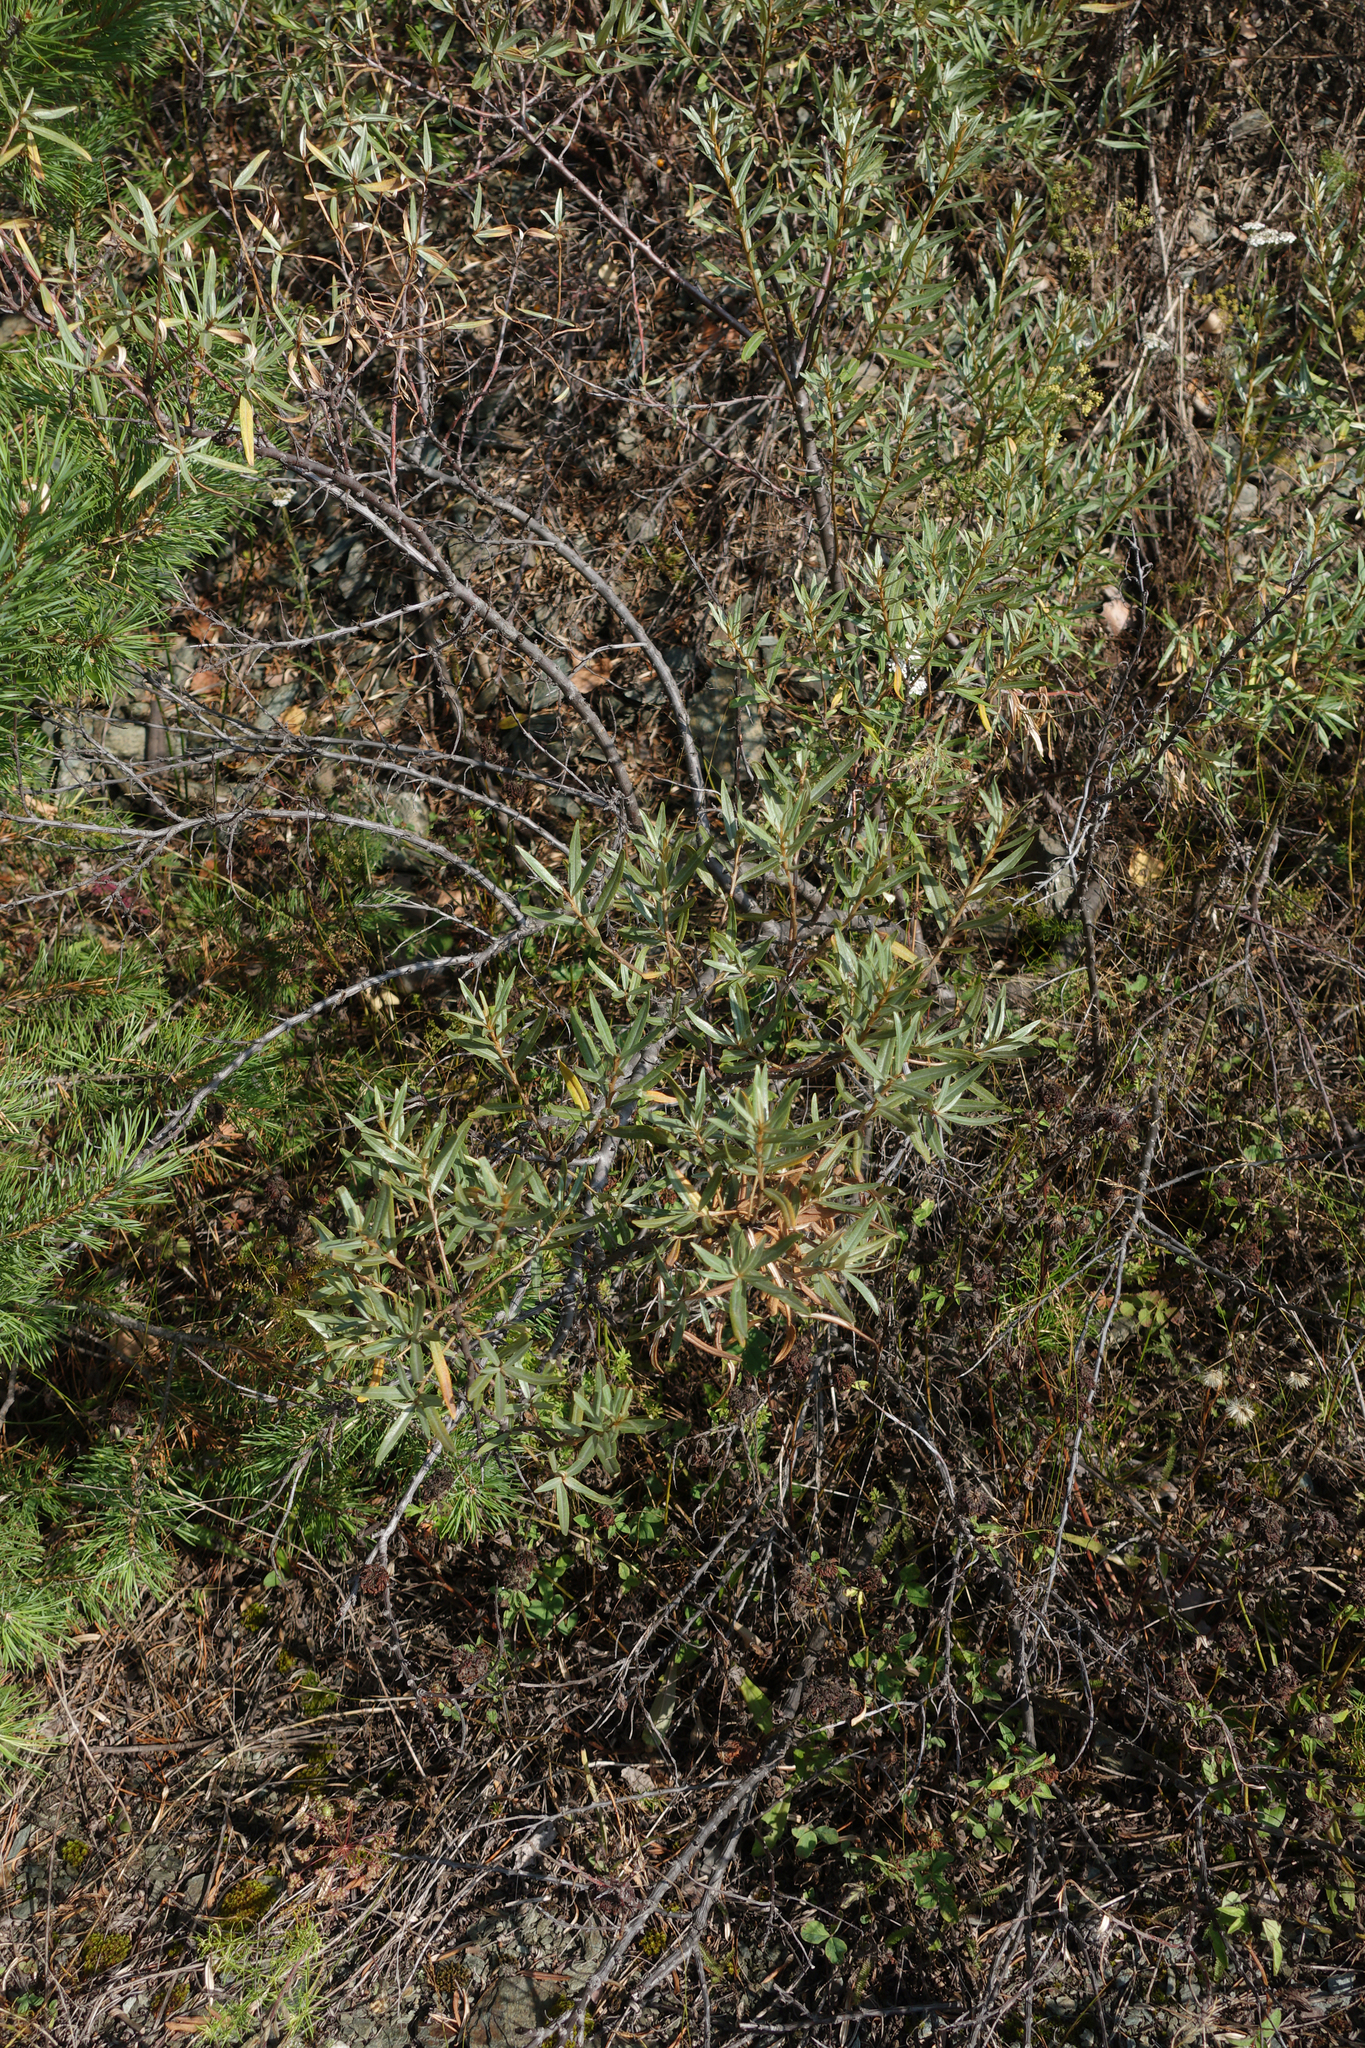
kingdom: Plantae
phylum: Tracheophyta
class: Magnoliopsida
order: Rosales
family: Elaeagnaceae
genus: Hippophae
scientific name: Hippophae rhamnoides
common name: Sea-buckthorn
